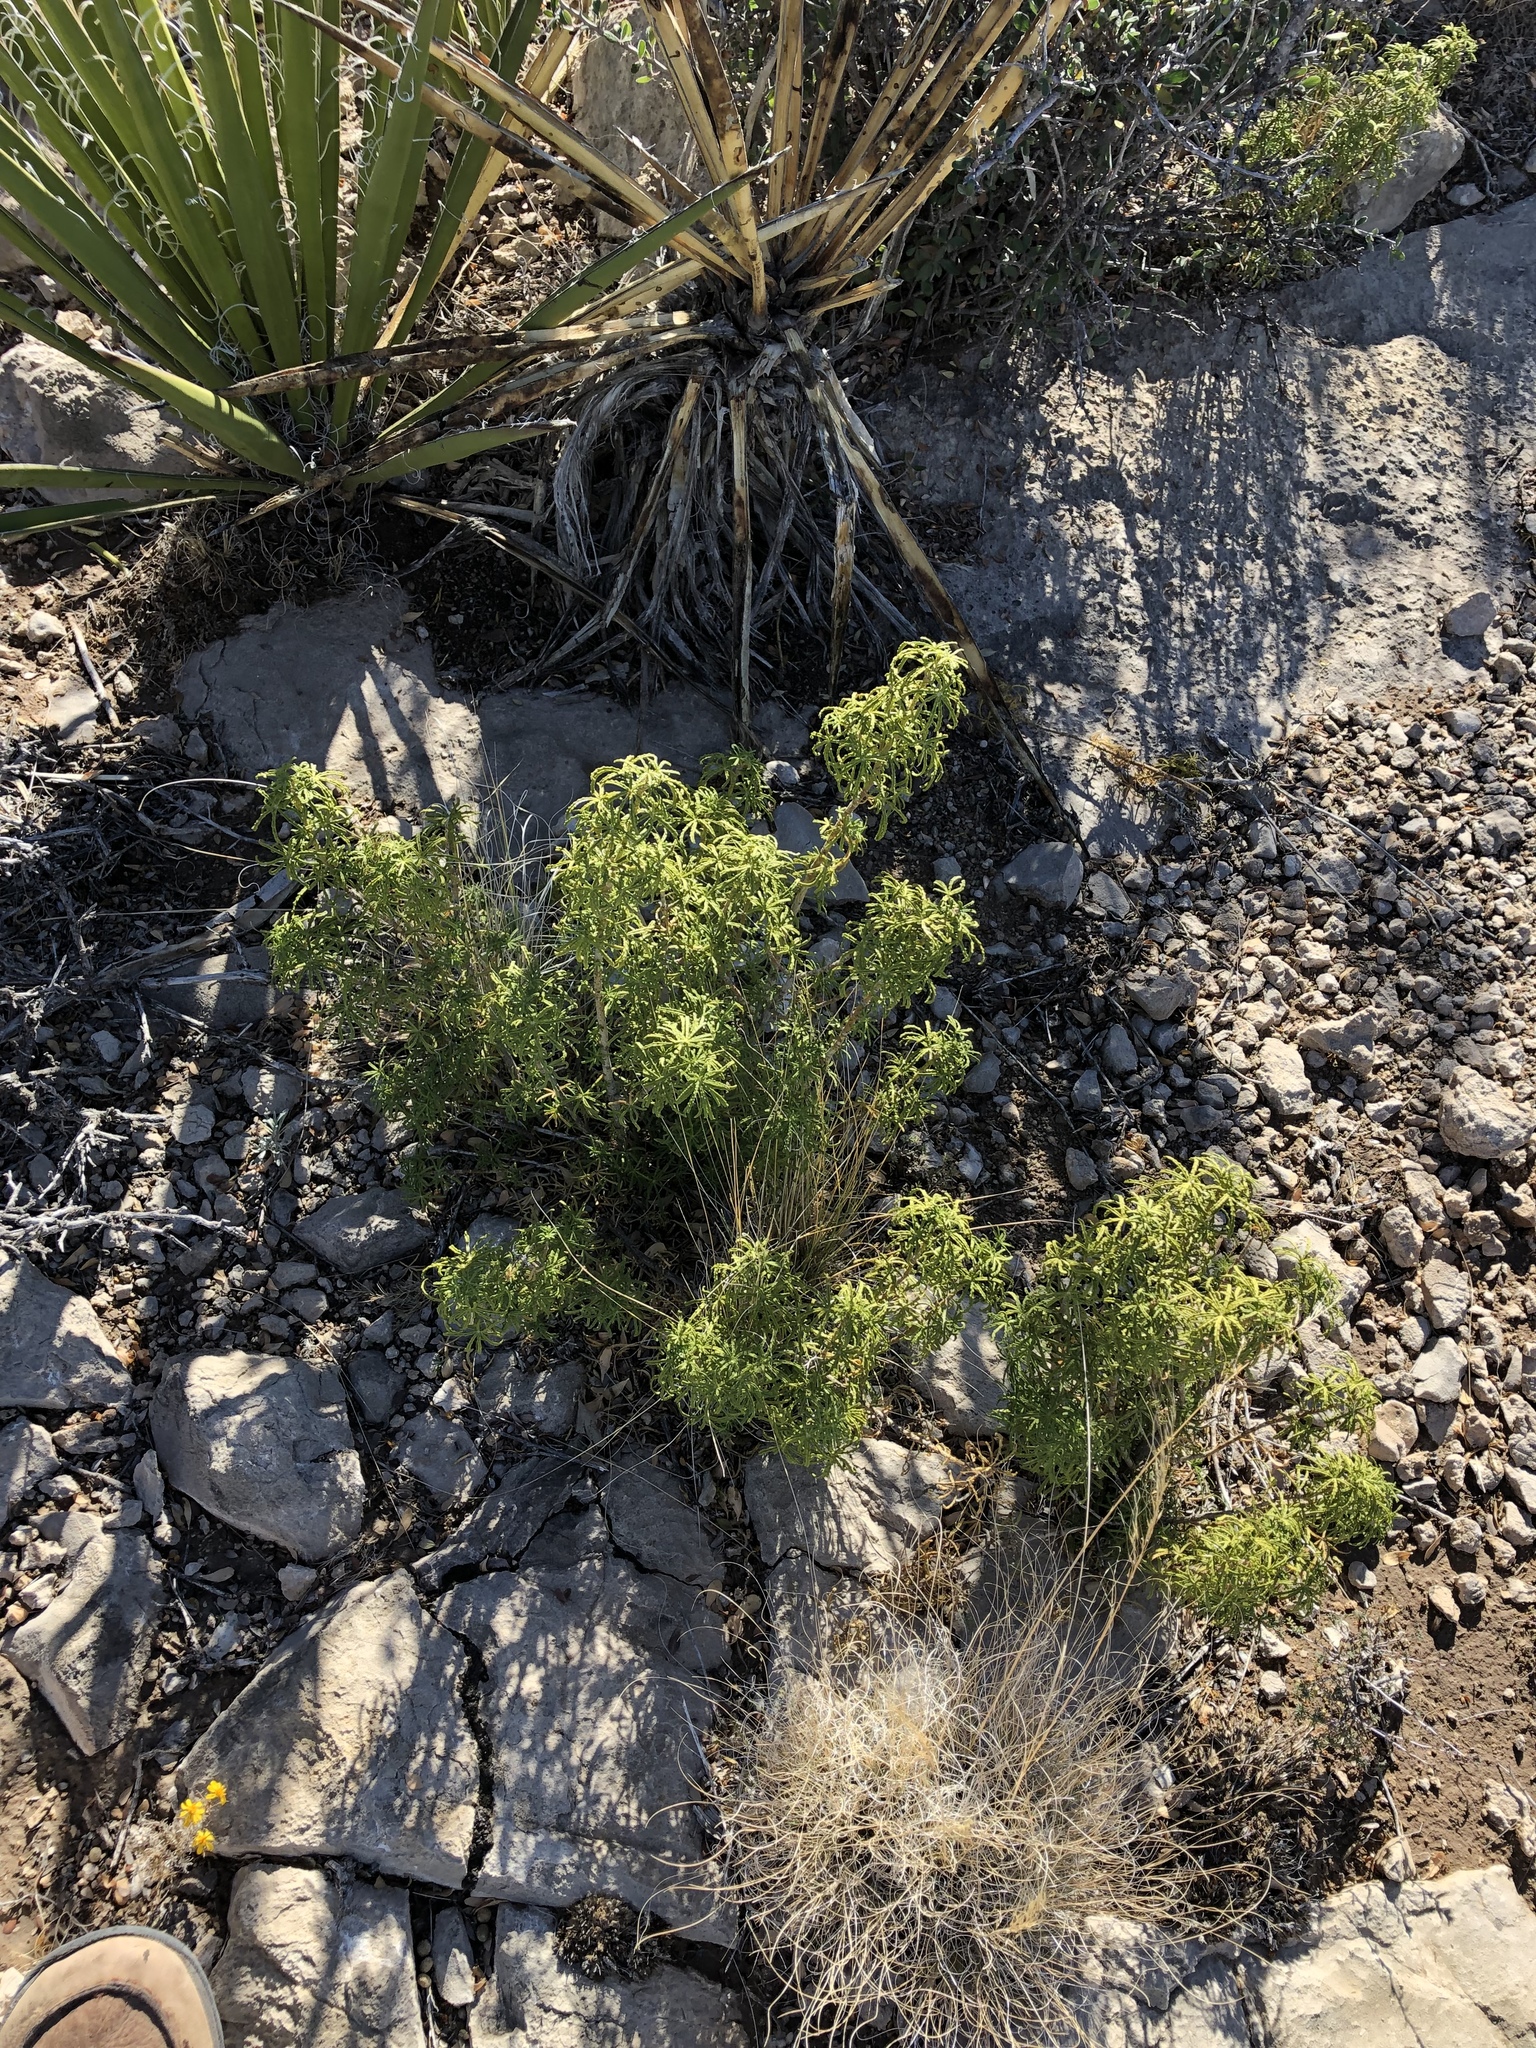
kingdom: Plantae
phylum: Tracheophyta
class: Magnoliopsida
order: Sapindales
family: Rutaceae
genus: Choisya
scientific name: Choisya dumosa
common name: Mexican-orange
